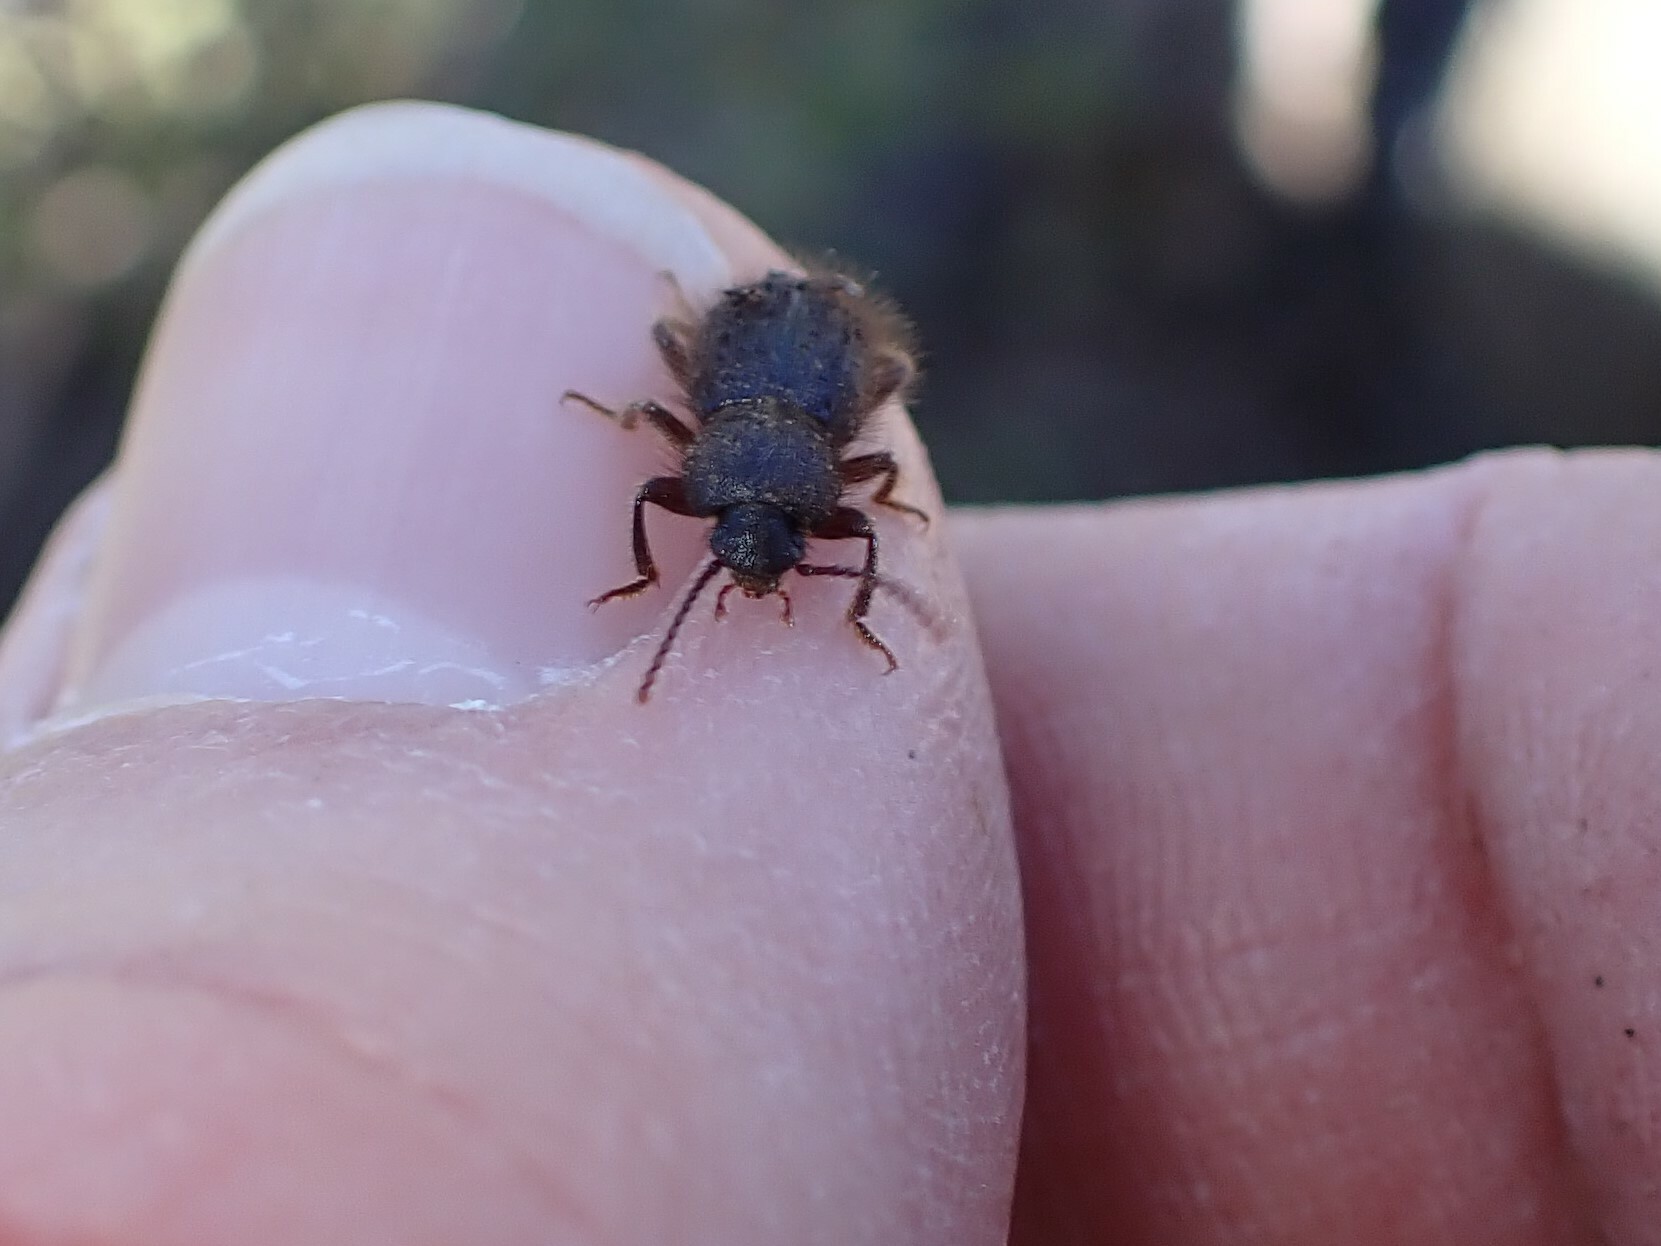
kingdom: Animalia
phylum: Arthropoda
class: Insecta
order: Coleoptera
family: Tenebrionidae
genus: Eleodes
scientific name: Eleodes littoralis
